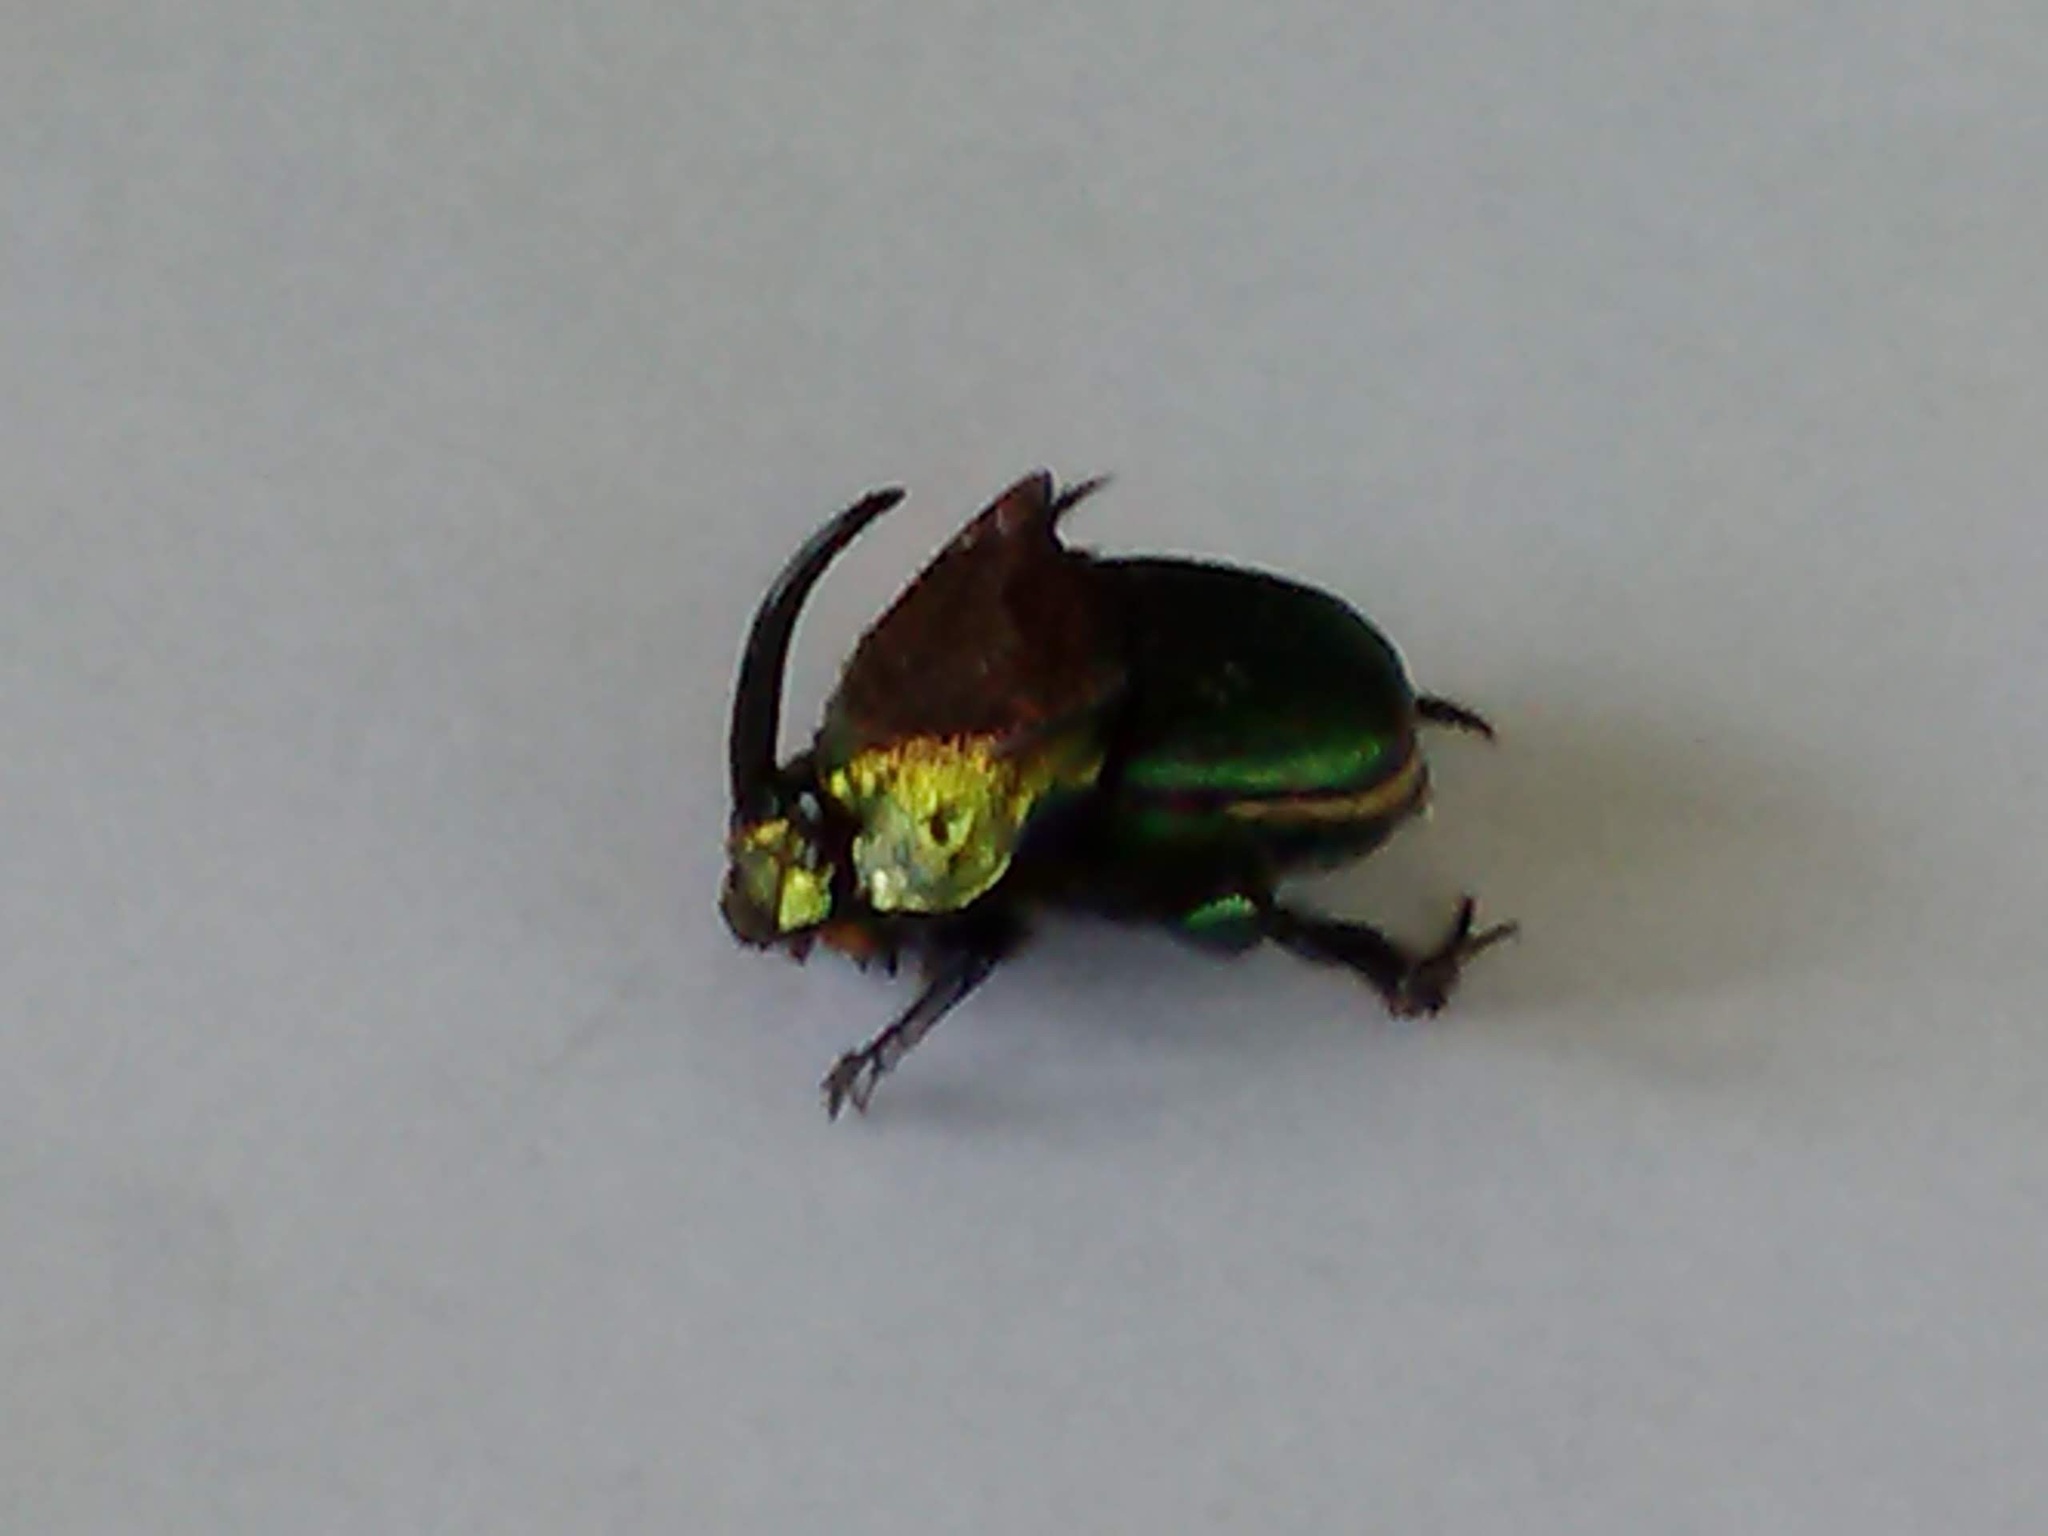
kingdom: Animalia
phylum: Arthropoda
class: Insecta
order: Coleoptera
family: Scarabaeidae
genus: Phanaeus
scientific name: Phanaeus vindex
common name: Rainbow scarab
